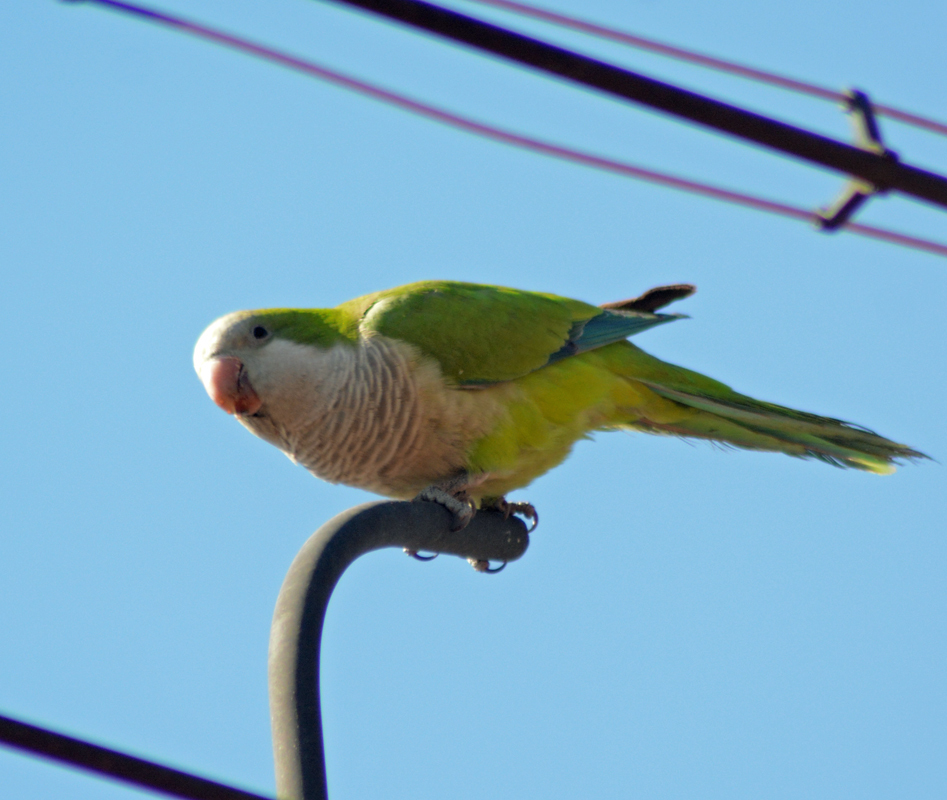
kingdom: Animalia
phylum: Chordata
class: Aves
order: Psittaciformes
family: Psittacidae
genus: Myiopsitta
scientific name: Myiopsitta monachus
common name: Monk parakeet
